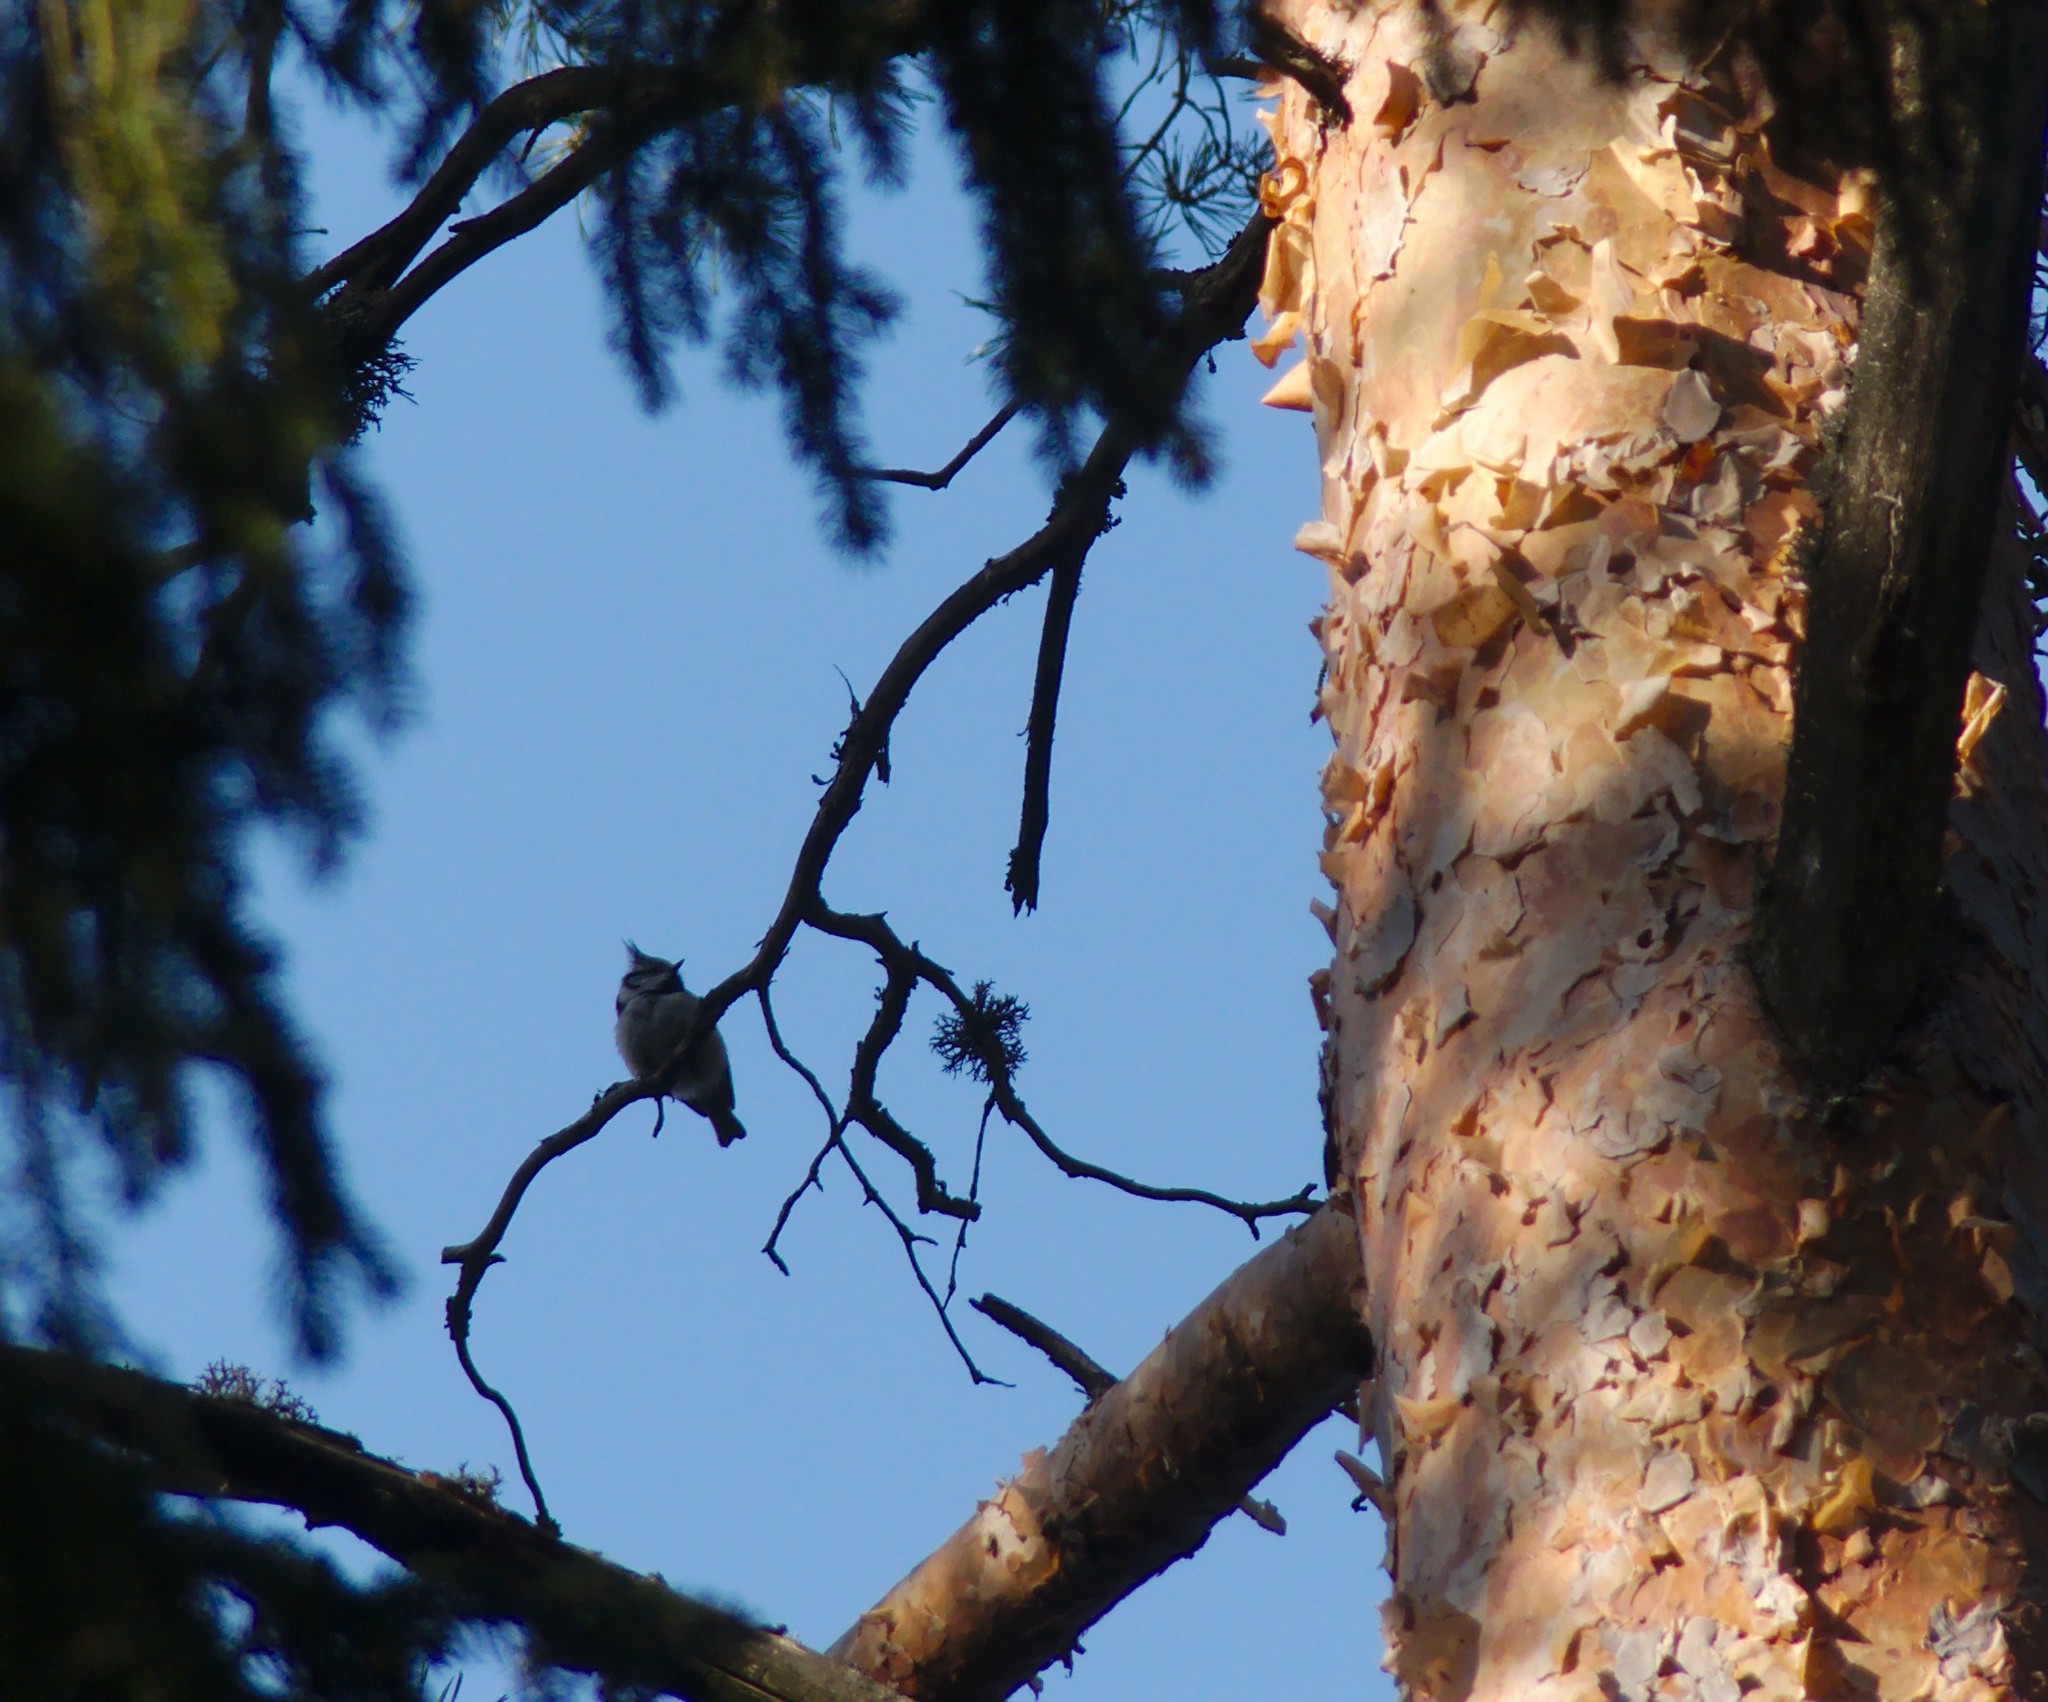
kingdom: Animalia
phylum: Chordata
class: Aves
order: Passeriformes
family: Paridae
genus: Lophophanes
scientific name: Lophophanes cristatus
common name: European crested tit
